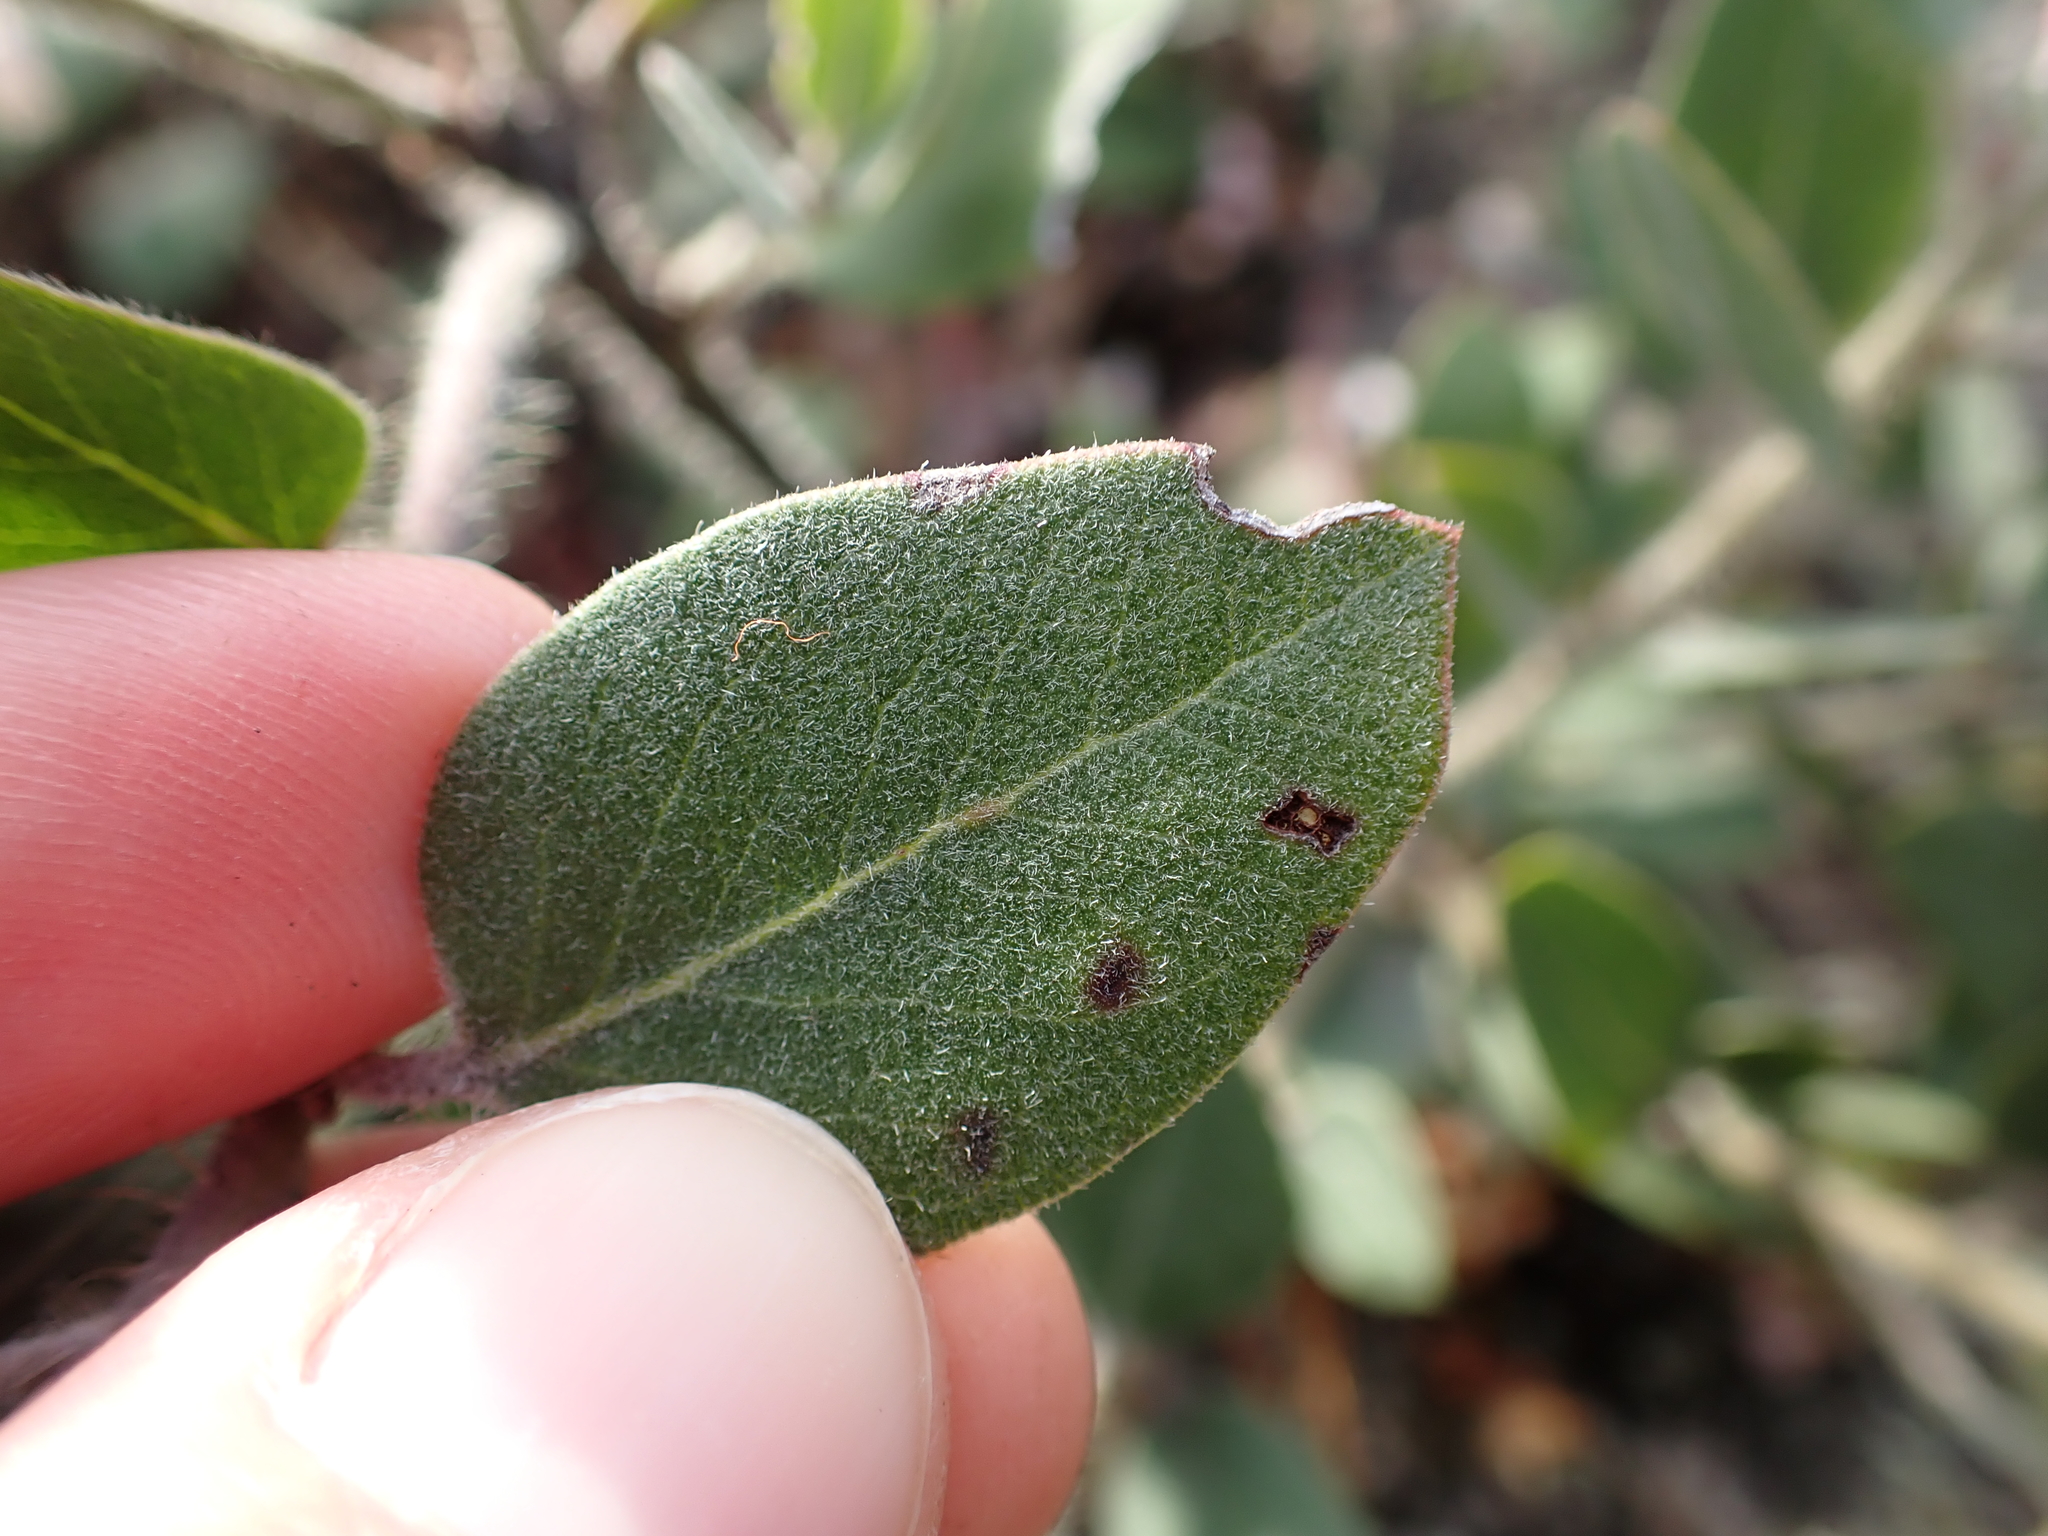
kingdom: Plantae
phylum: Tracheophyta
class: Magnoliopsida
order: Ericales
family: Ericaceae
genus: Arctostaphylos
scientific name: Arctostaphylos columbiana
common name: Bristly bearberry
